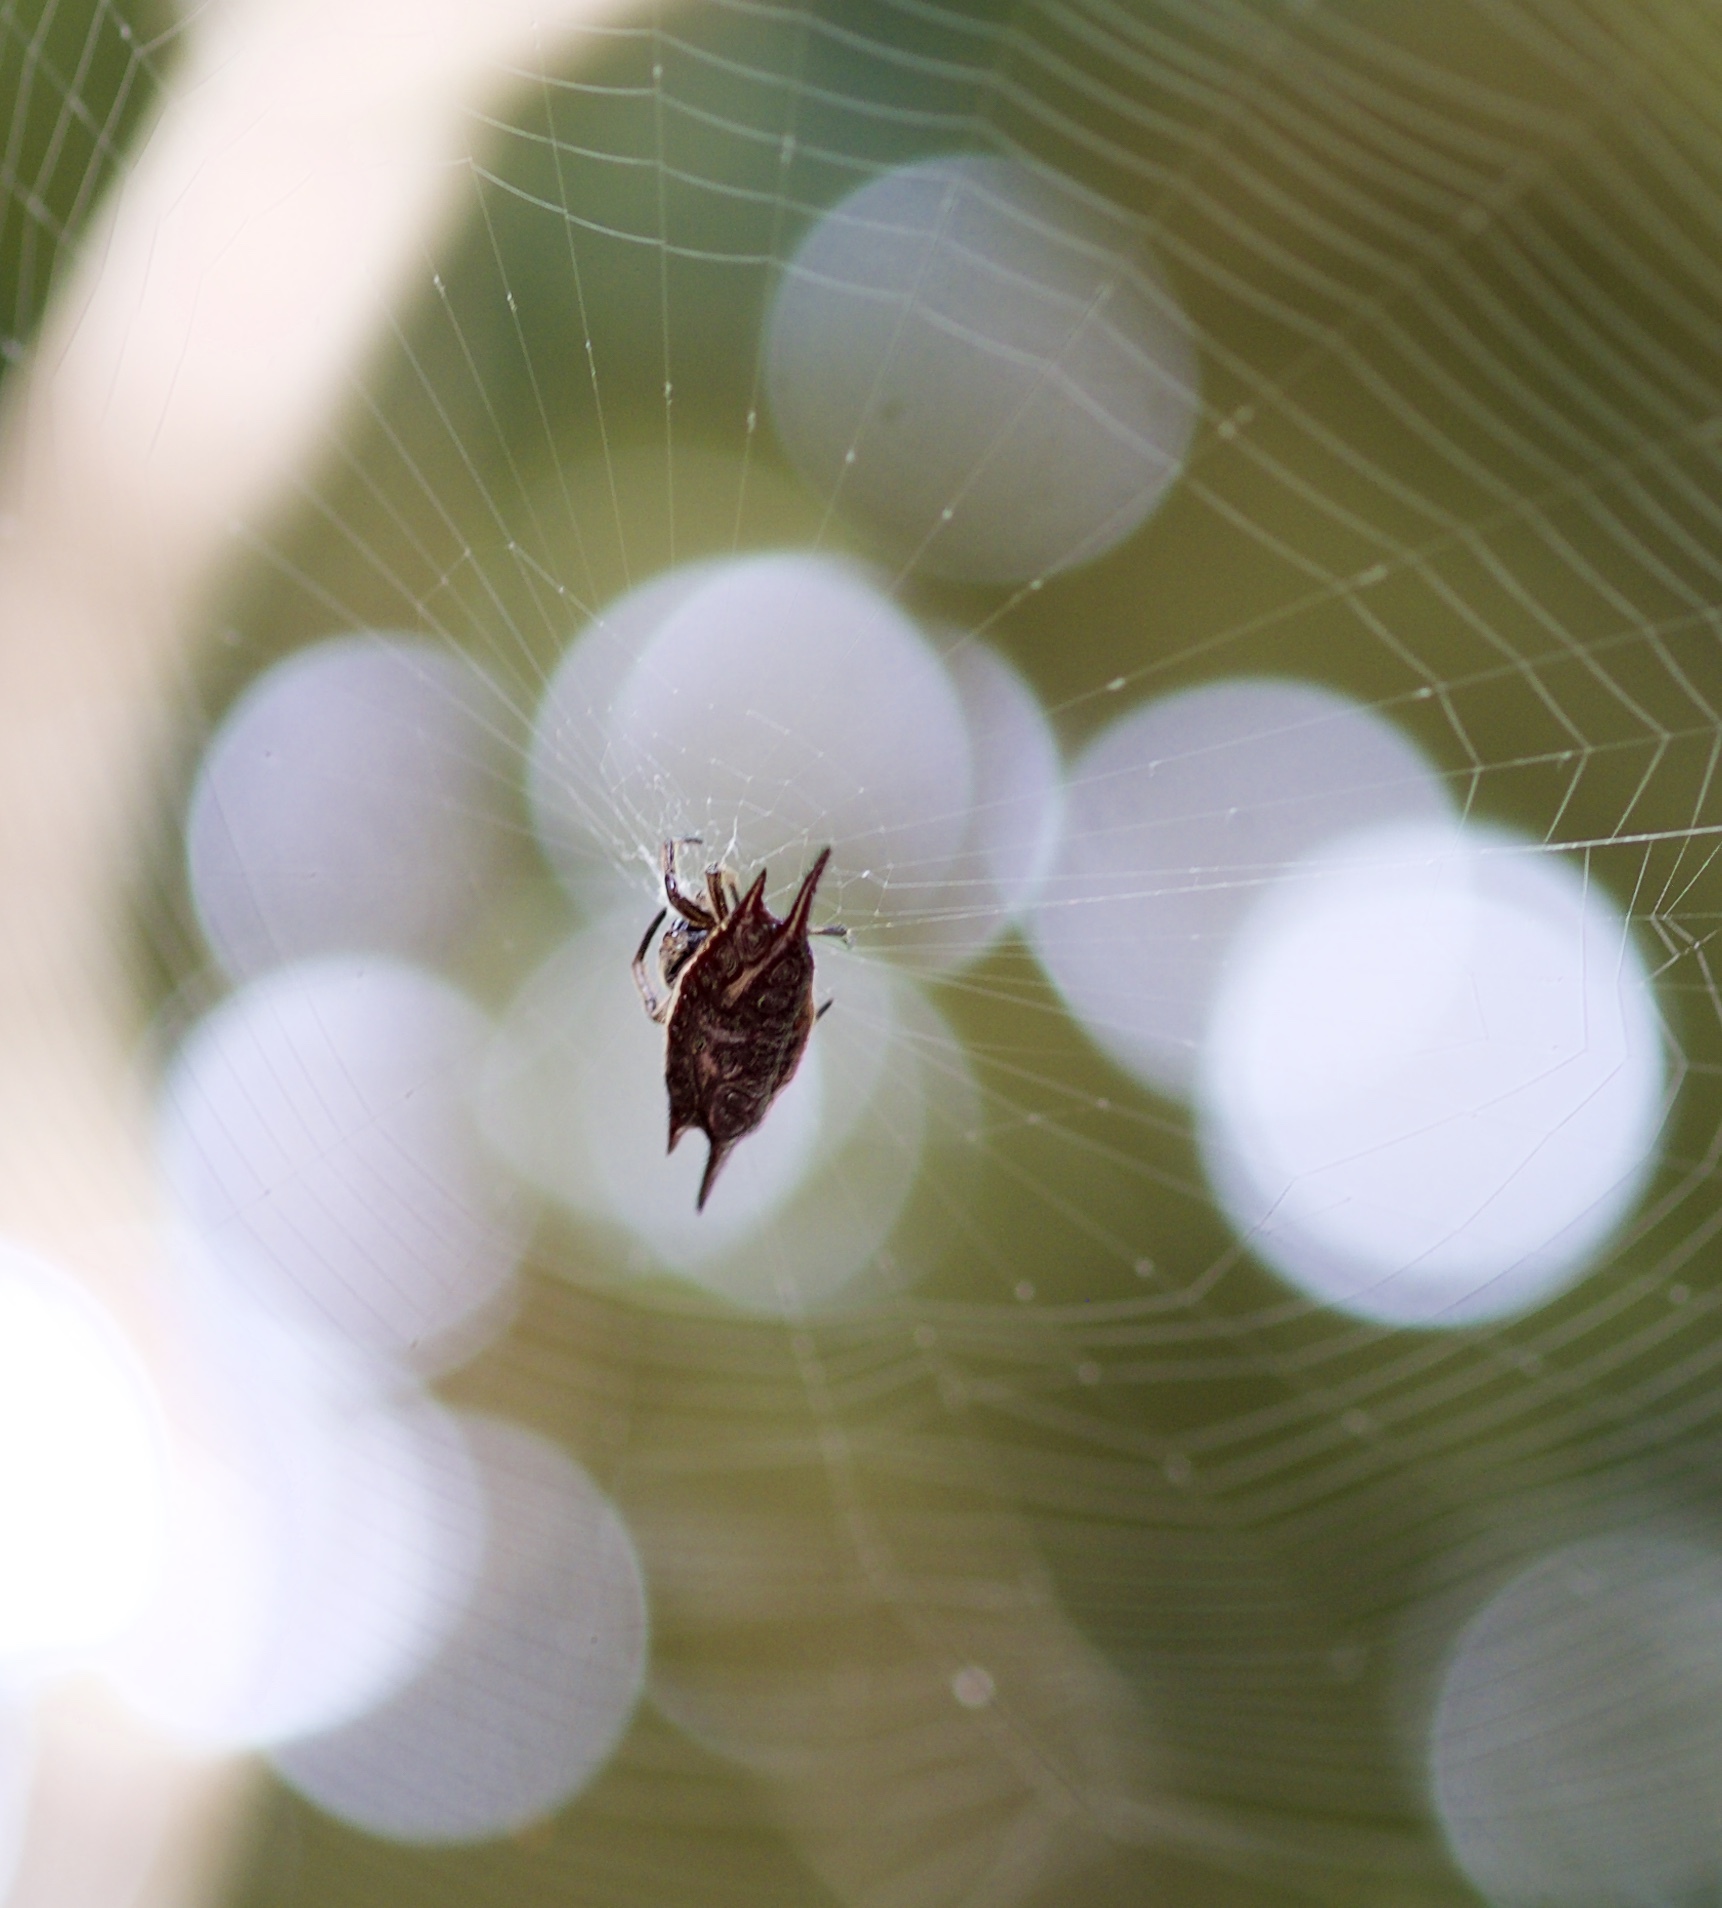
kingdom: Animalia
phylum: Arthropoda
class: Arachnida
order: Araneae
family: Araneidae
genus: Gasteracantha
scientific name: Gasteracantha mengei
